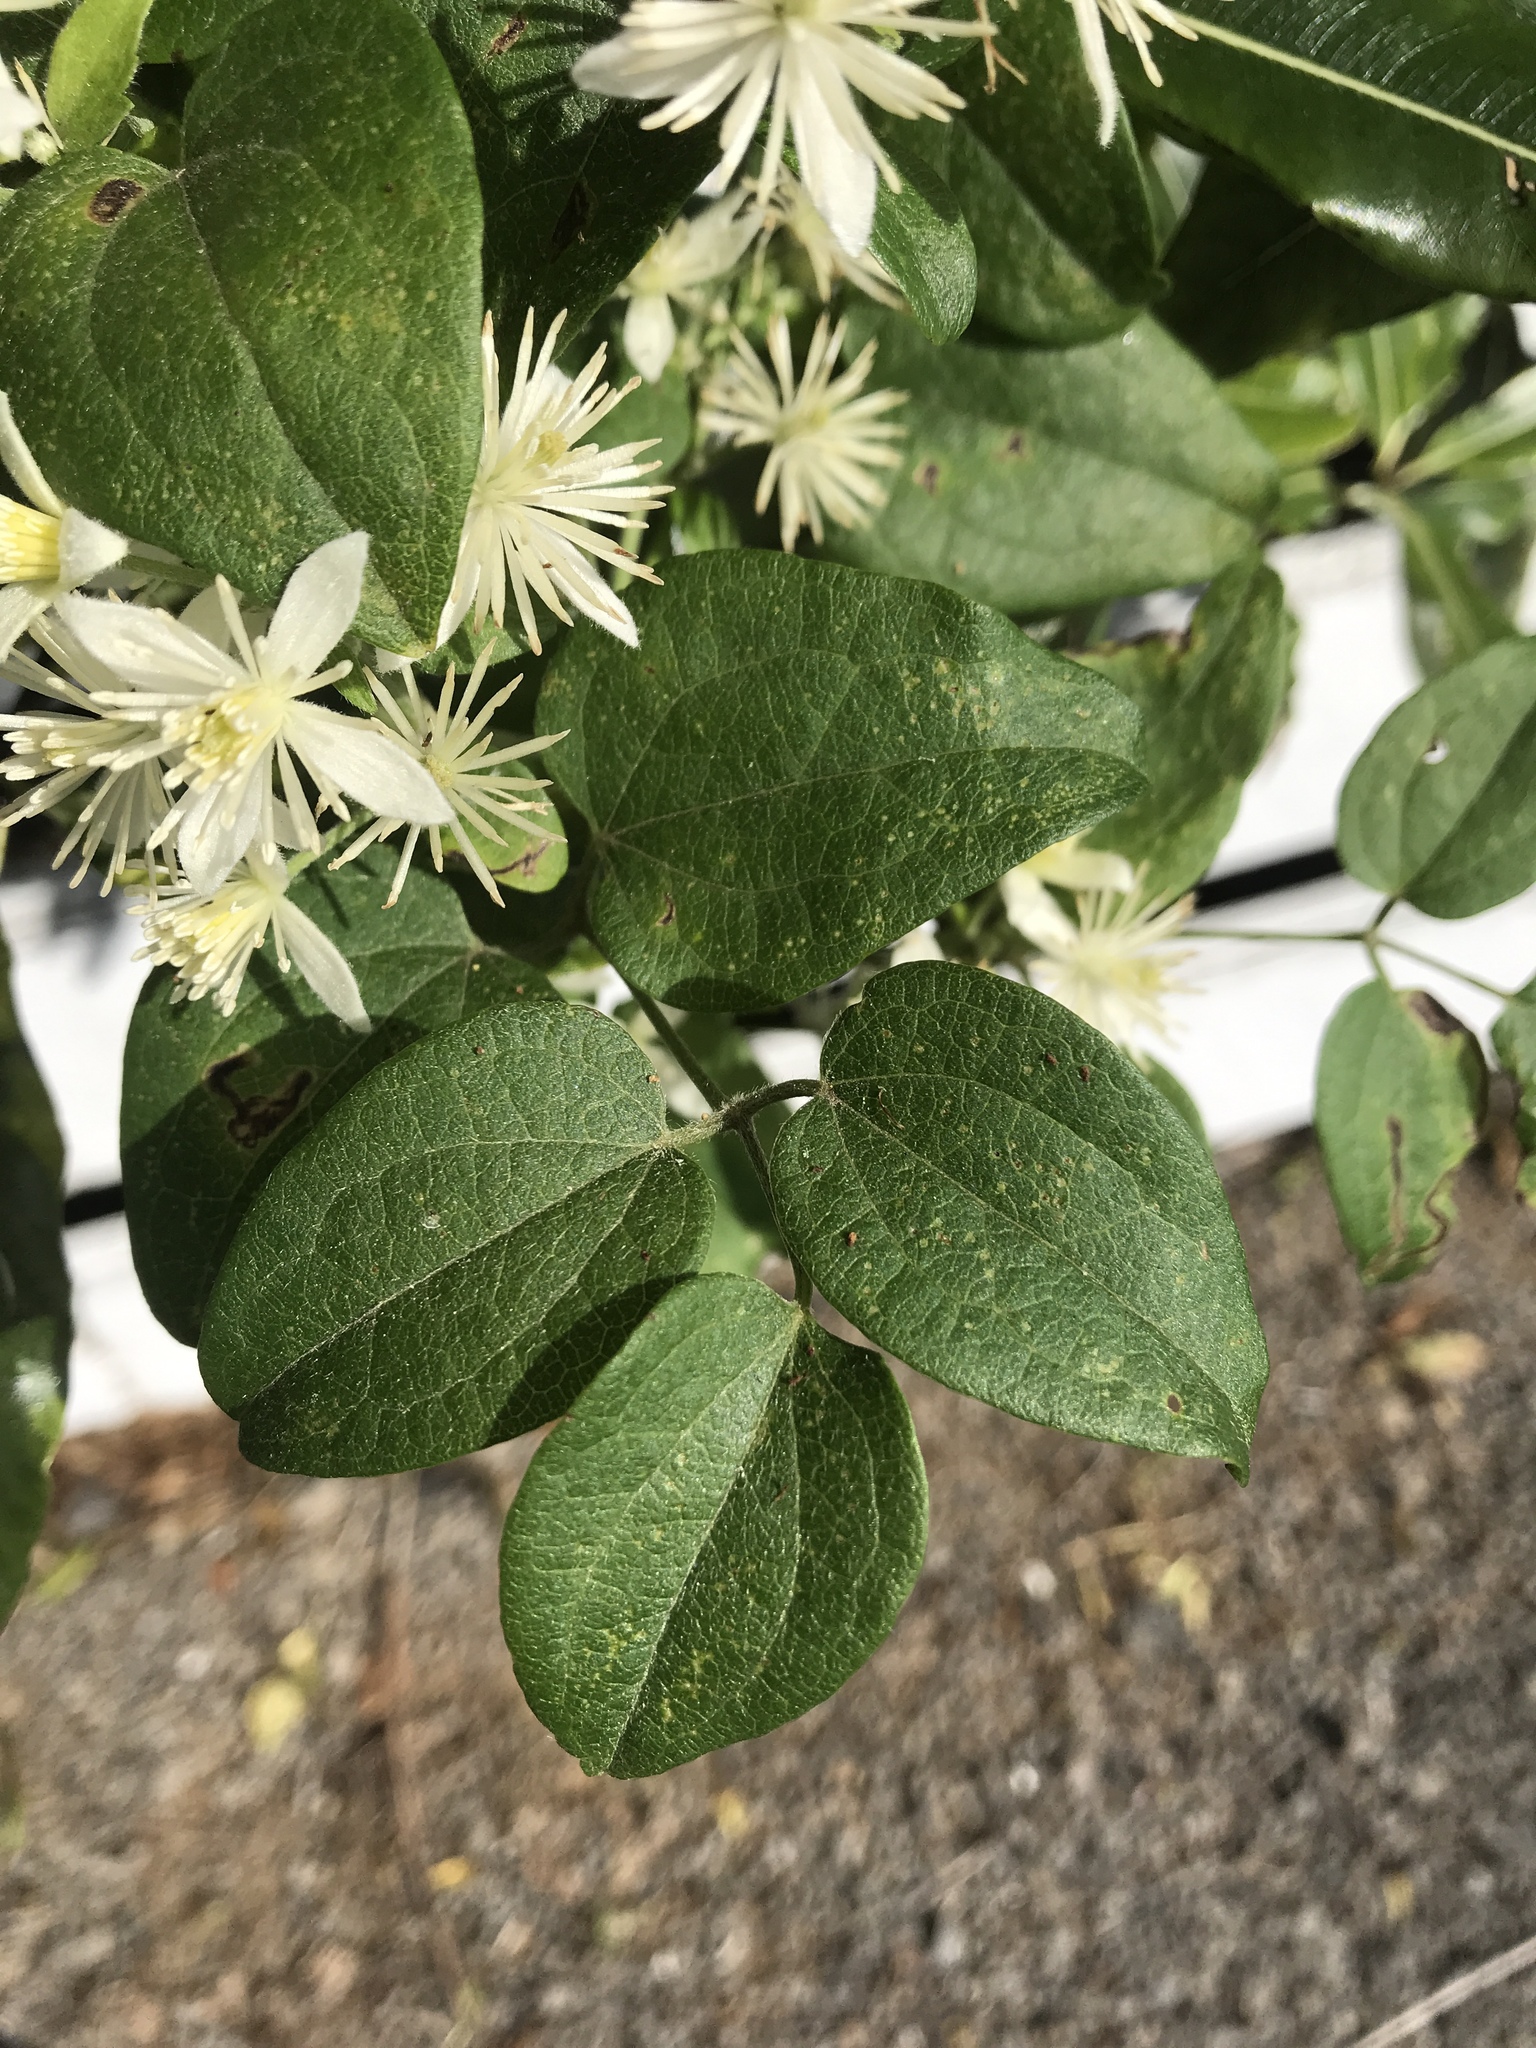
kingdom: Plantae
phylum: Tracheophyta
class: Magnoliopsida
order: Ranunculales
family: Ranunculaceae
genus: Clematis
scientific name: Clematis vitalba
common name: Evergreen clematis
